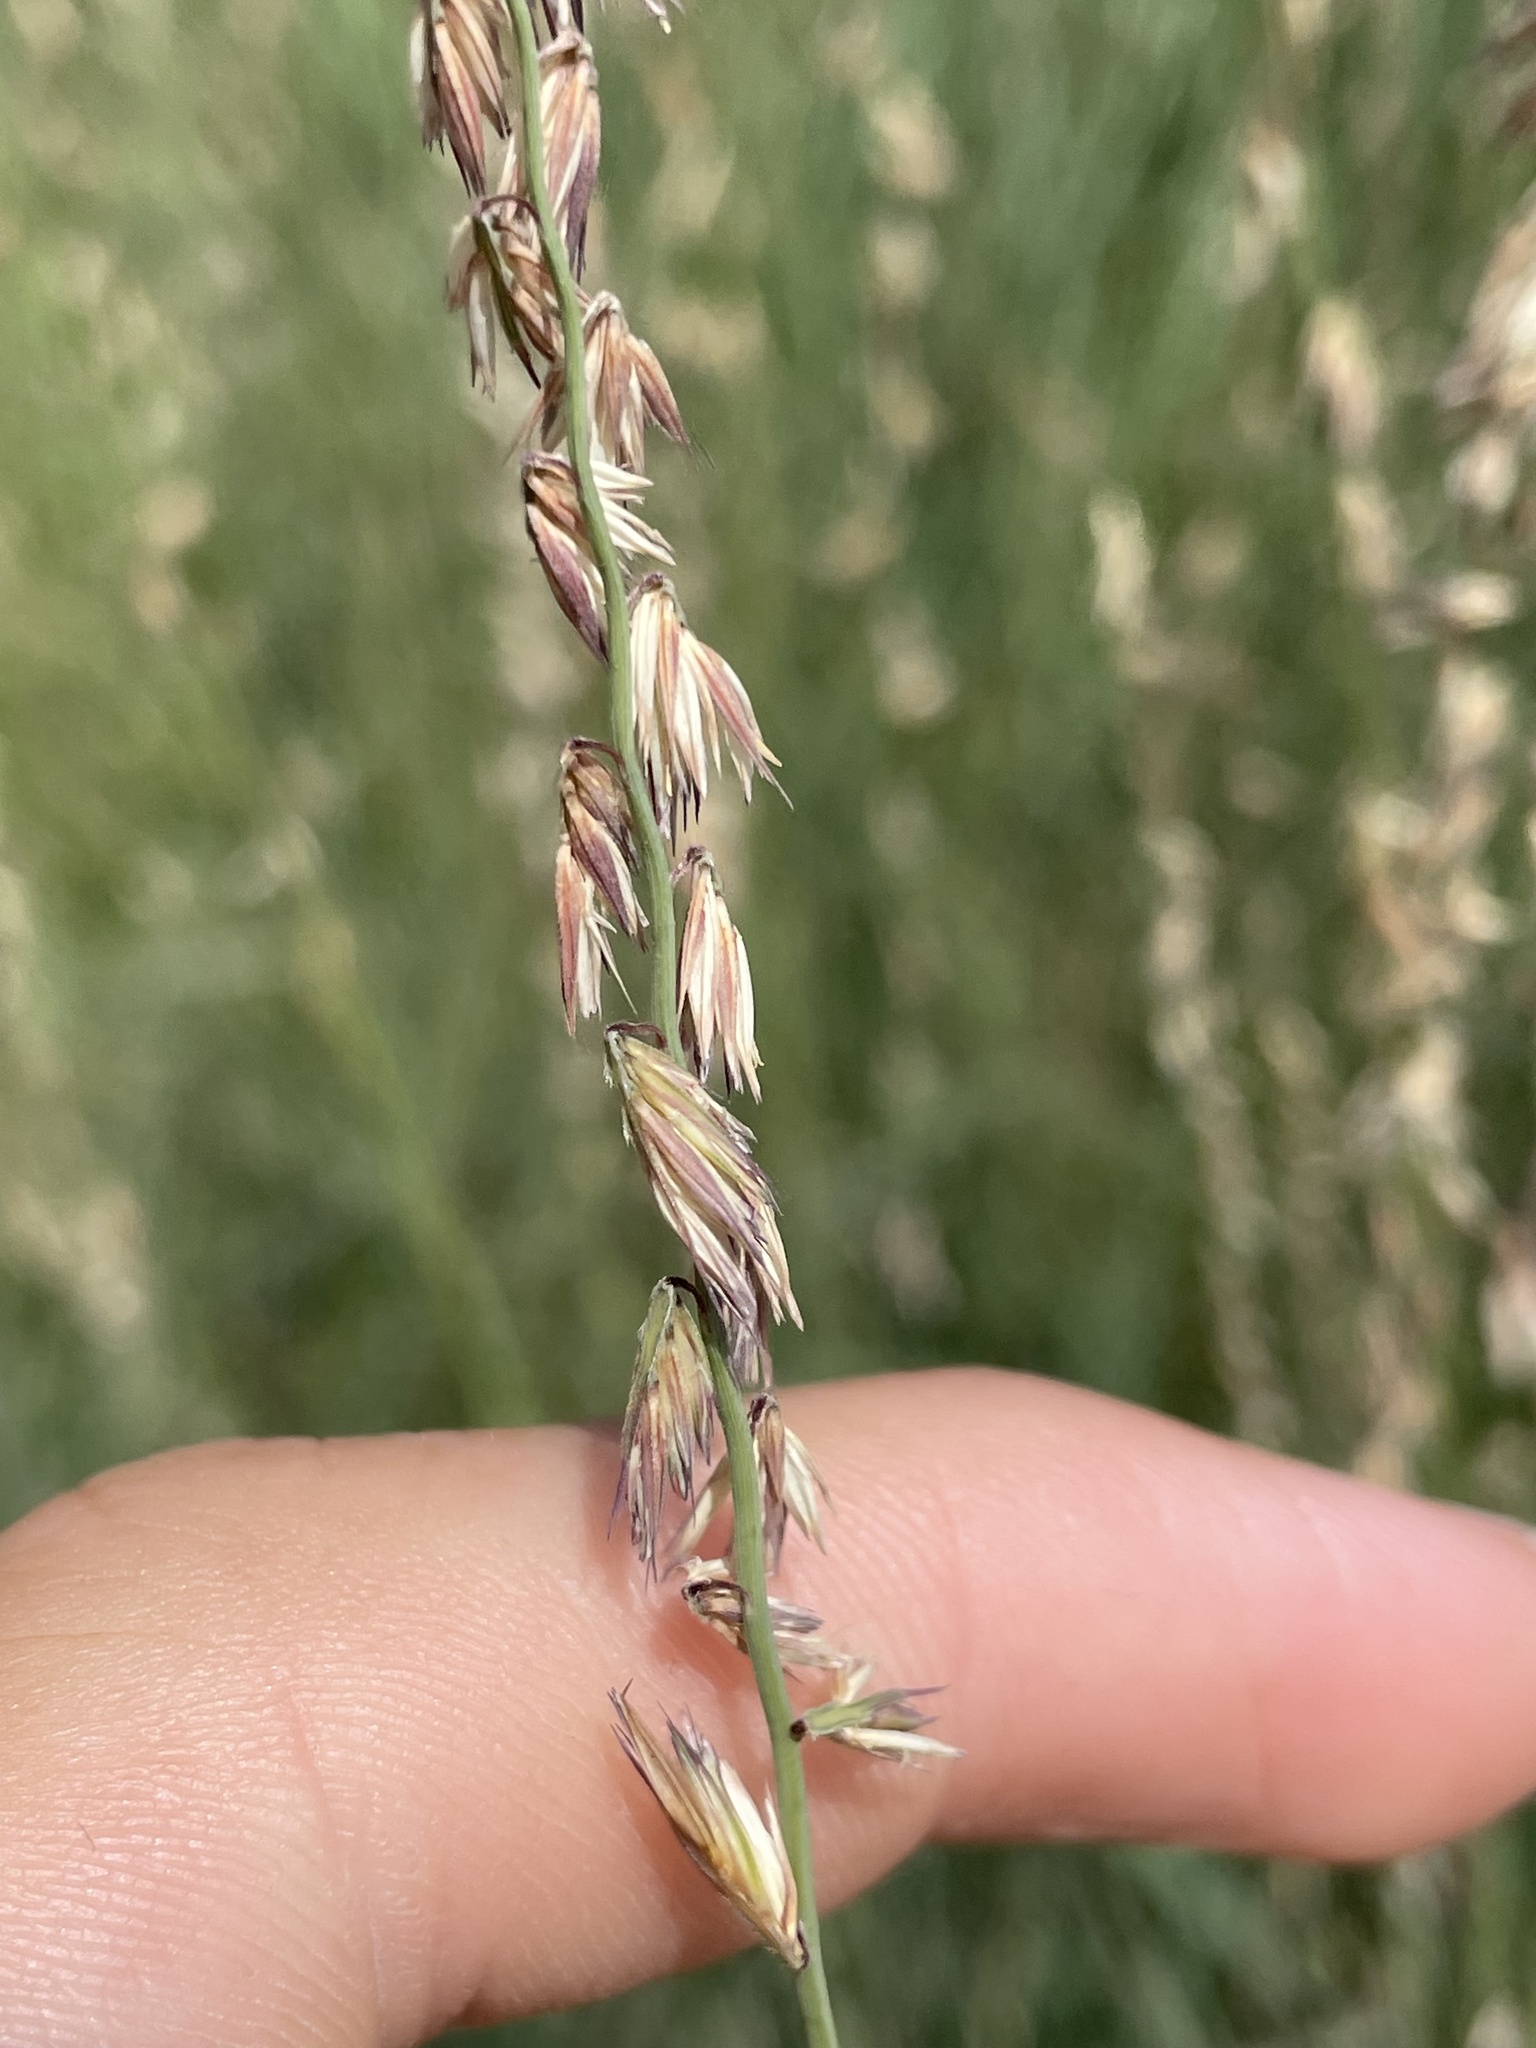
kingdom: Plantae
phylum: Tracheophyta
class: Liliopsida
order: Poales
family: Poaceae
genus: Bouteloua
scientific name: Bouteloua curtipendula
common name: Side-oats grama
